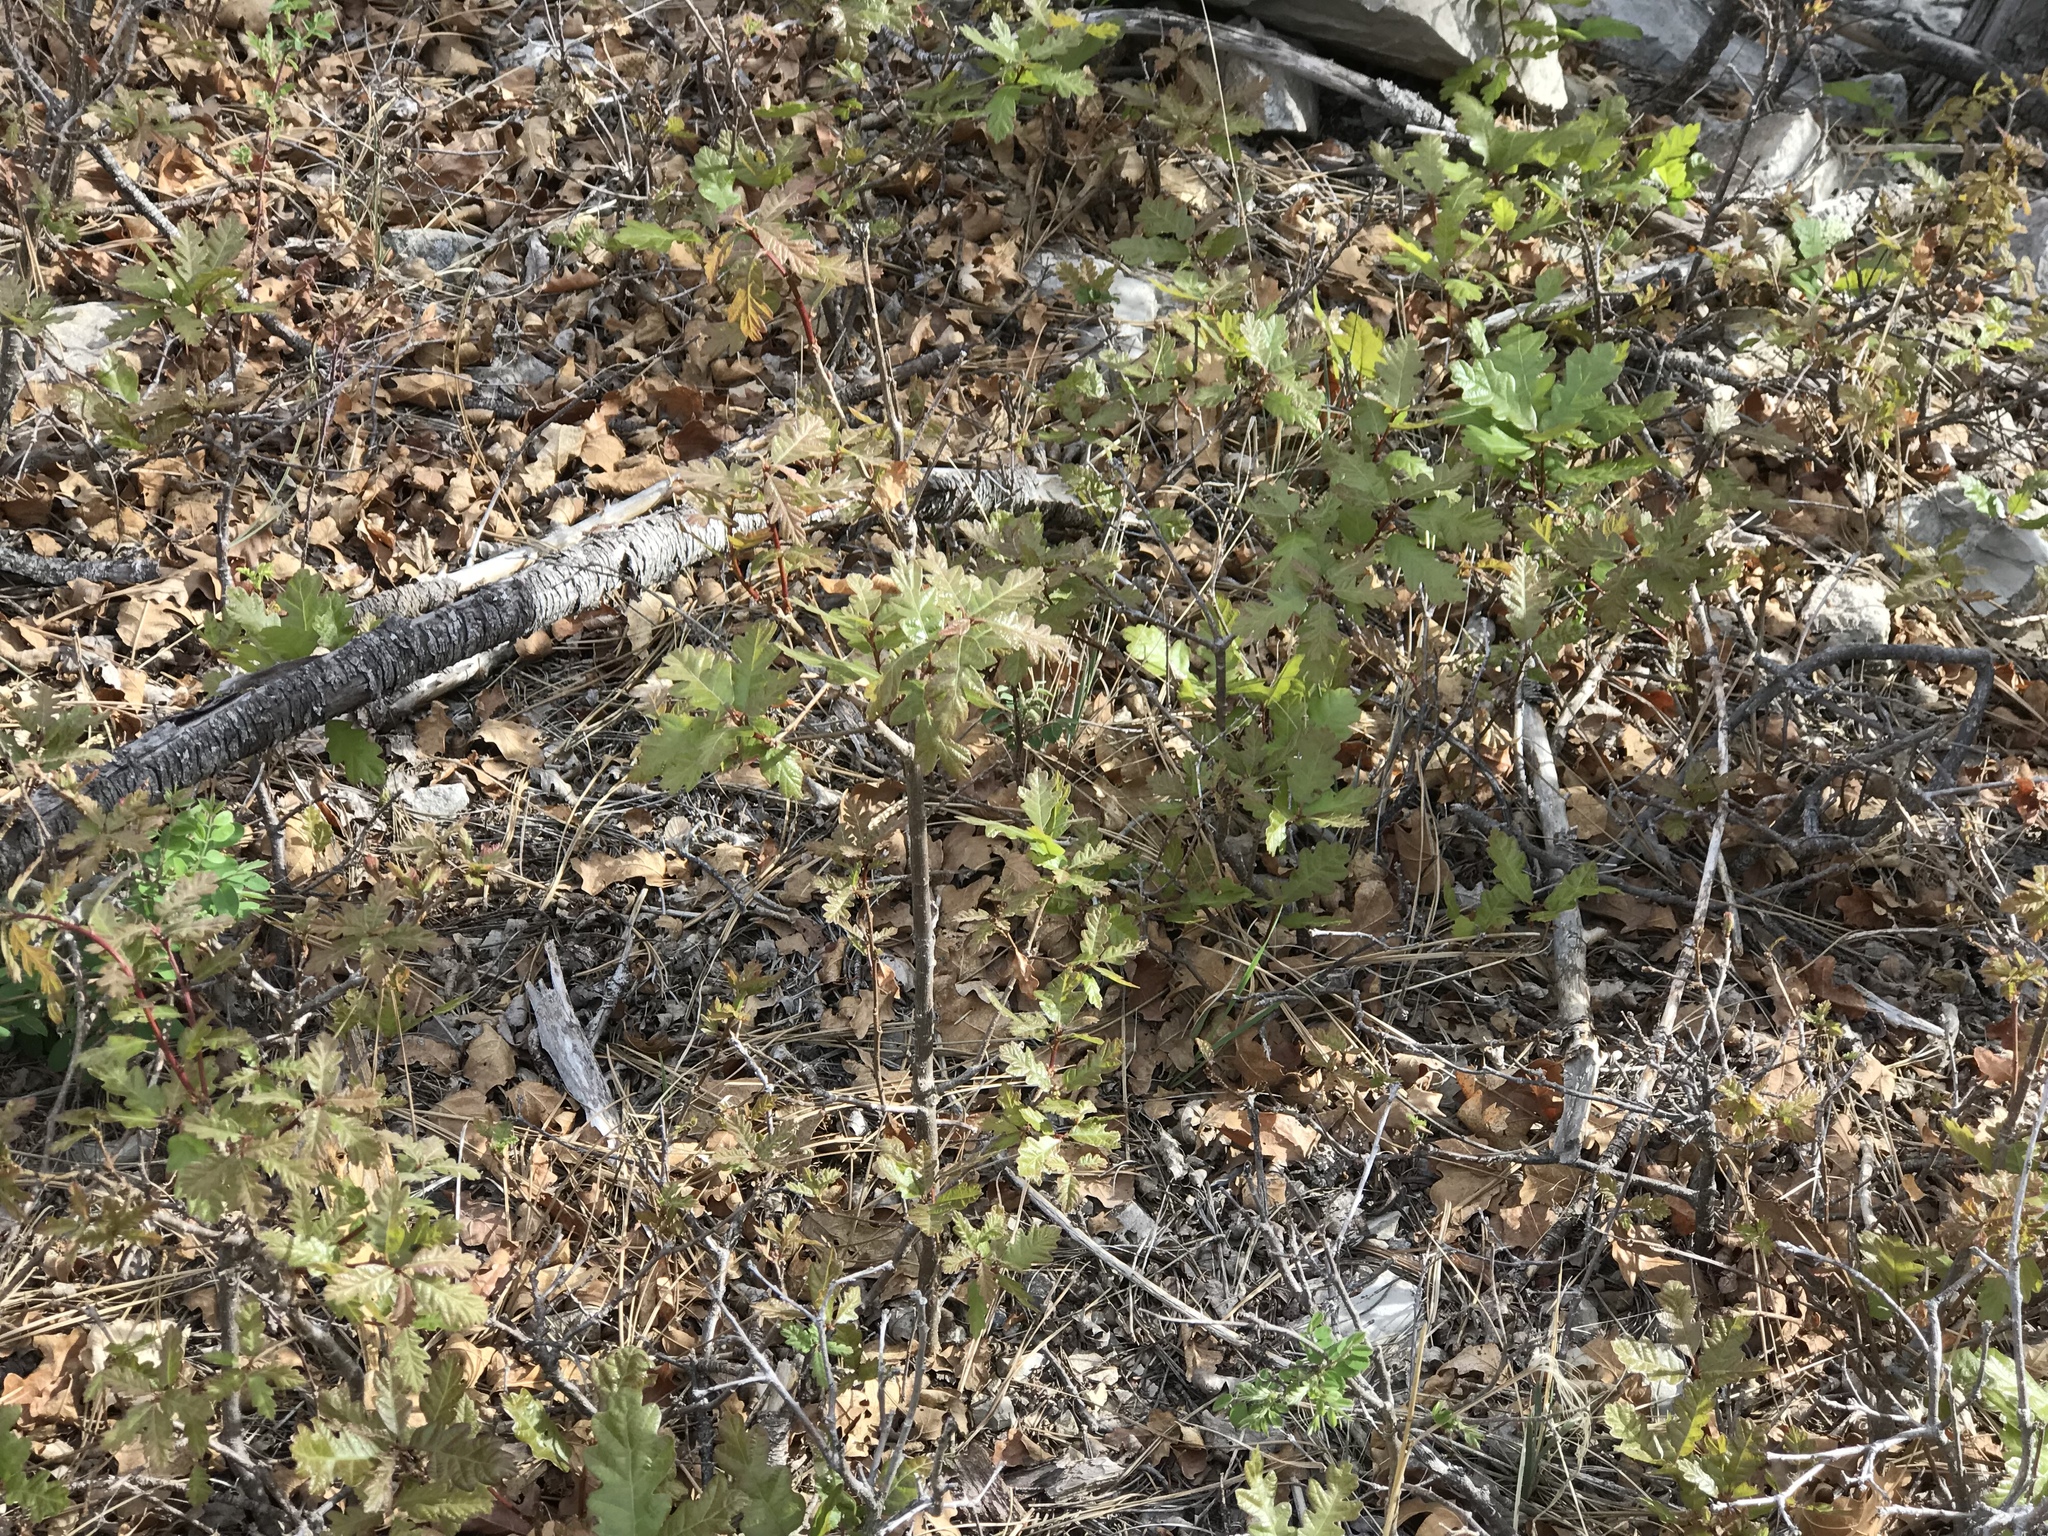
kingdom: Plantae
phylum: Tracheophyta
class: Magnoliopsida
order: Fagales
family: Fagaceae
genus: Quercus
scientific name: Quercus gambelii
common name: Gambel oak
